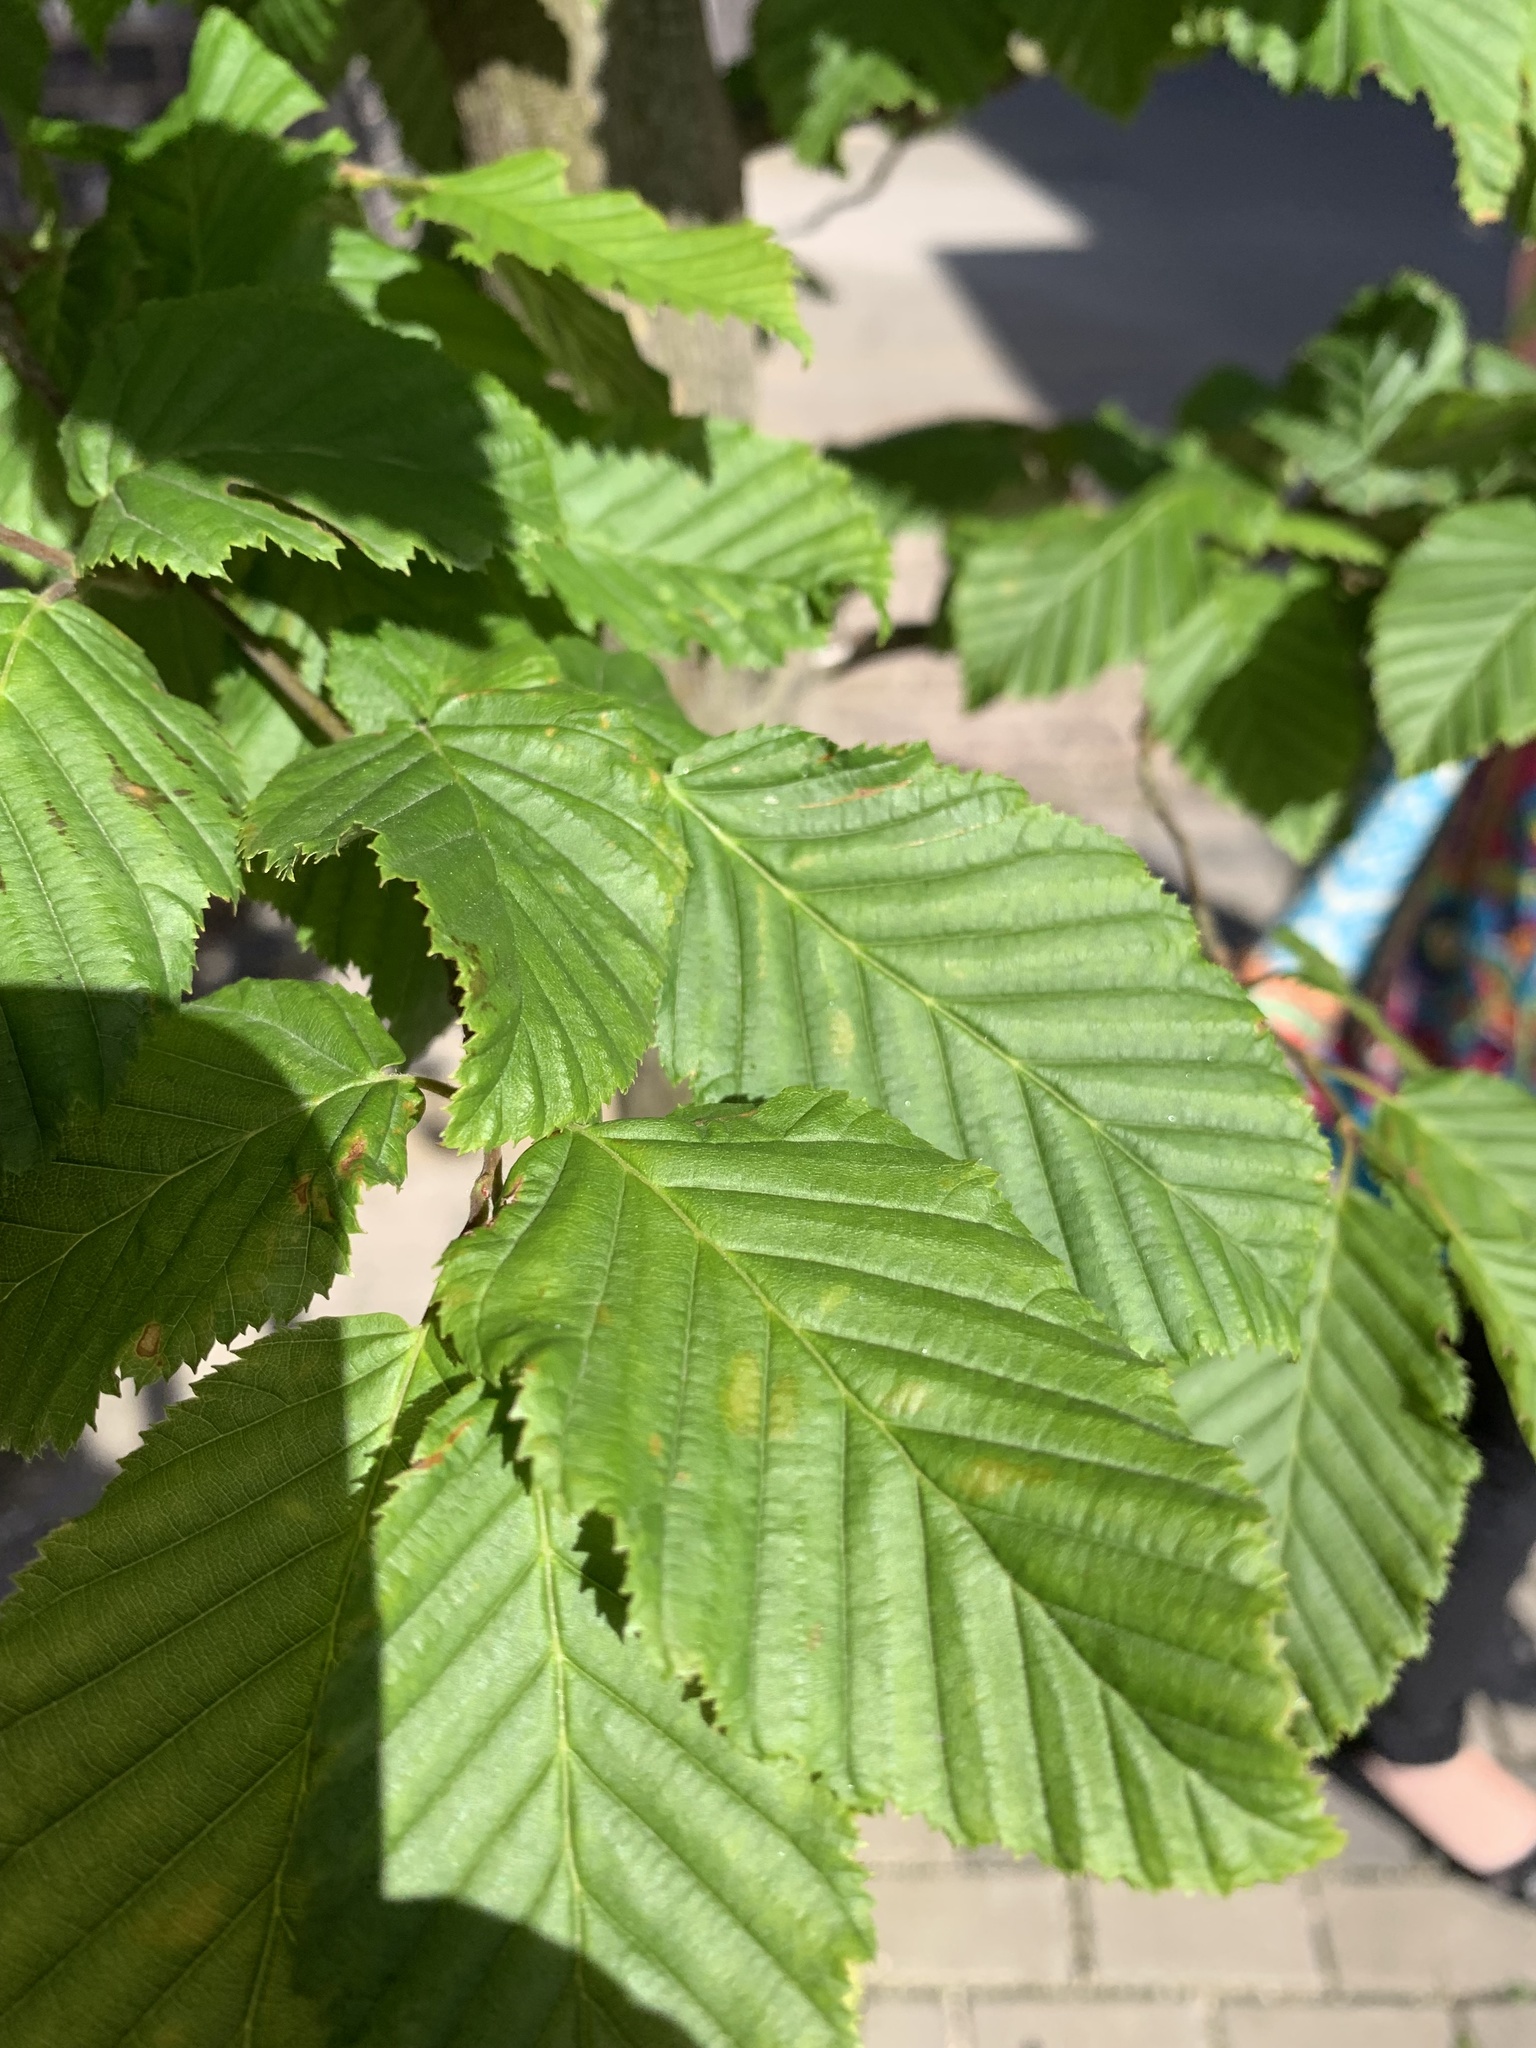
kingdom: Plantae
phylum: Tracheophyta
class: Magnoliopsida
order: Fagales
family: Betulaceae
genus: Carpinus
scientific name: Carpinus betulus
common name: Hornbeam
